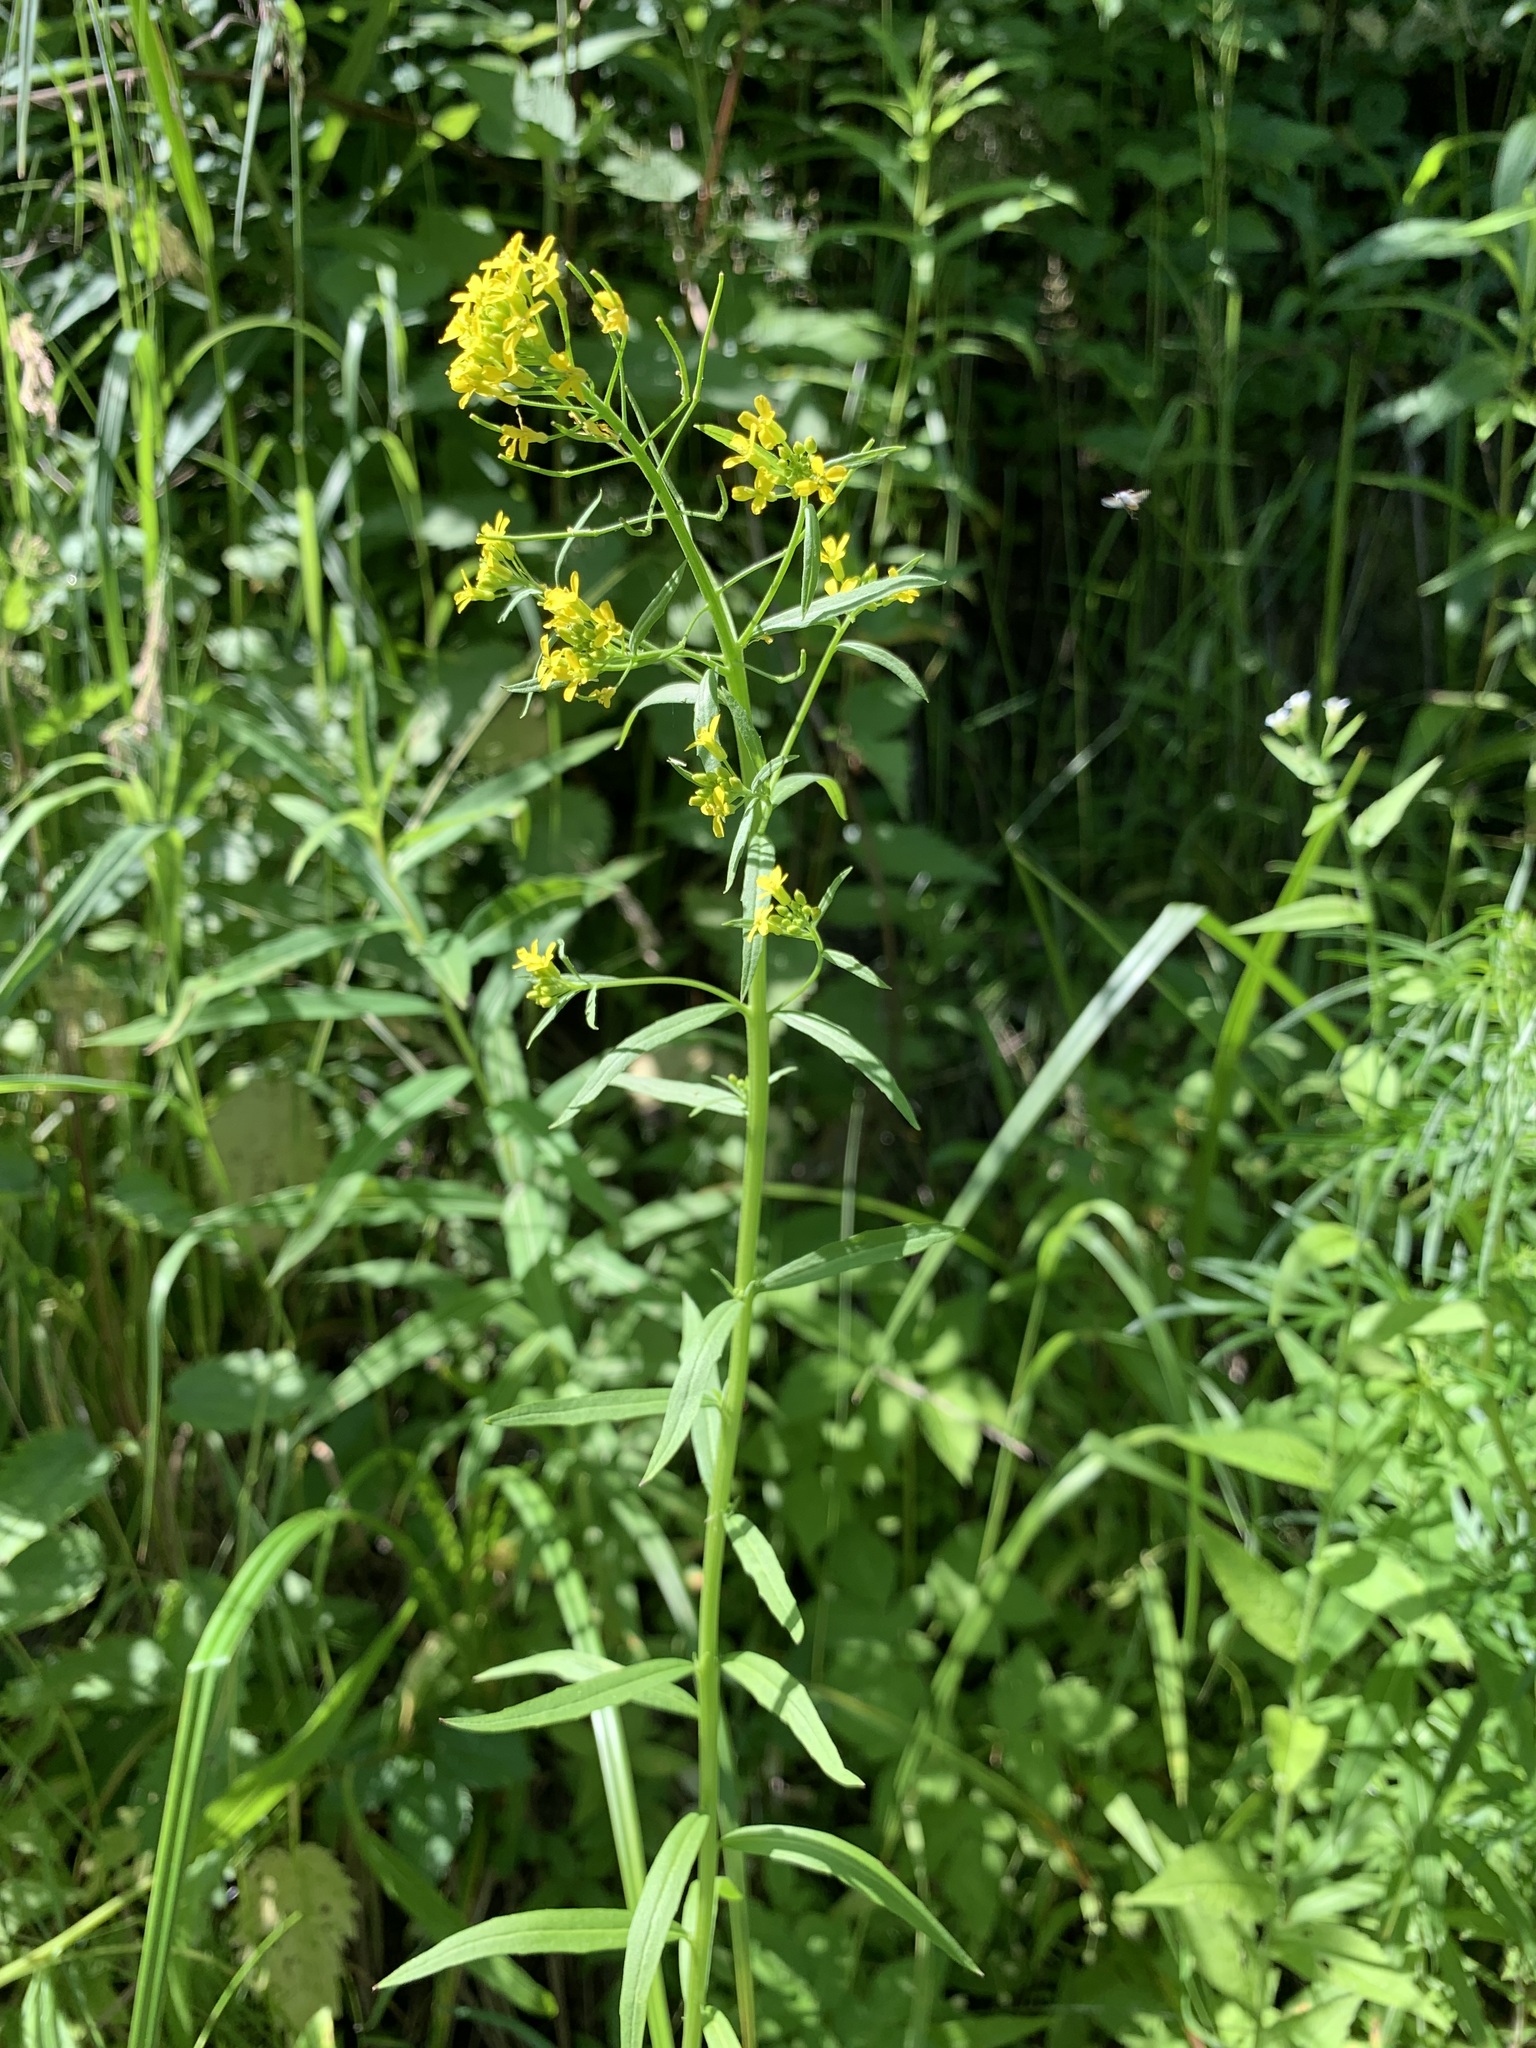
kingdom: Plantae
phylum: Tracheophyta
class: Magnoliopsida
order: Brassicales
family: Brassicaceae
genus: Erysimum
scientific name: Erysimum cheiranthoides
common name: Treacle mustard
